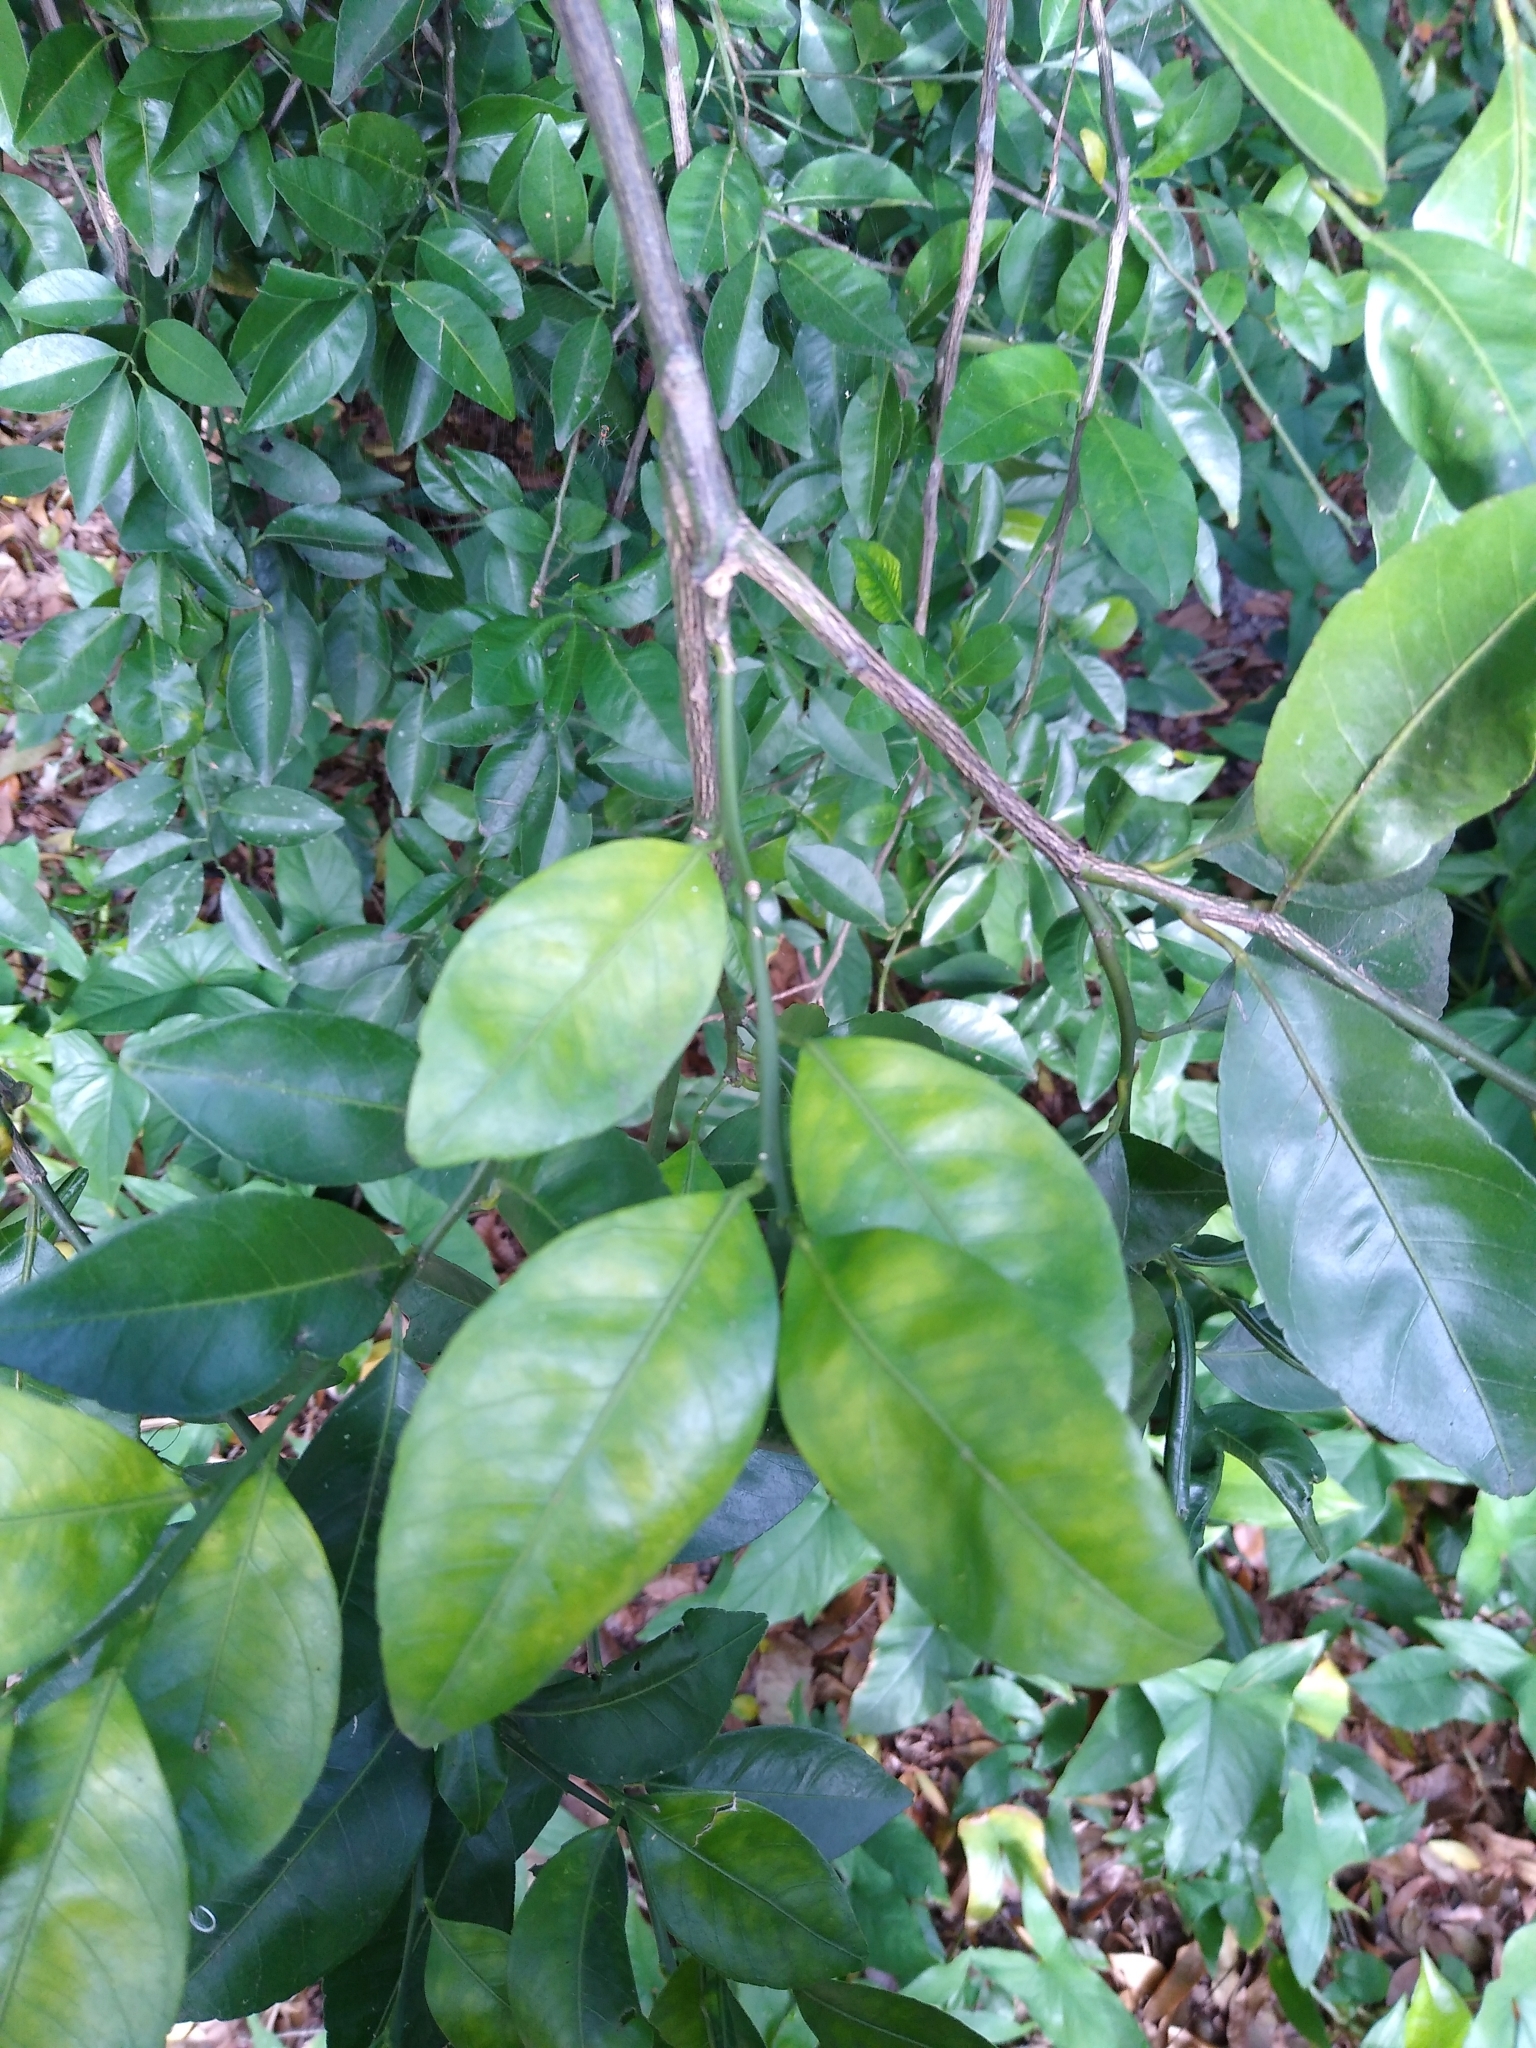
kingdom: Plantae
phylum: Tracheophyta
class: Magnoliopsida
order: Sapindales
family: Rutaceae
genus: Citrus
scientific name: Citrus aurantium
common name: Sour orange
